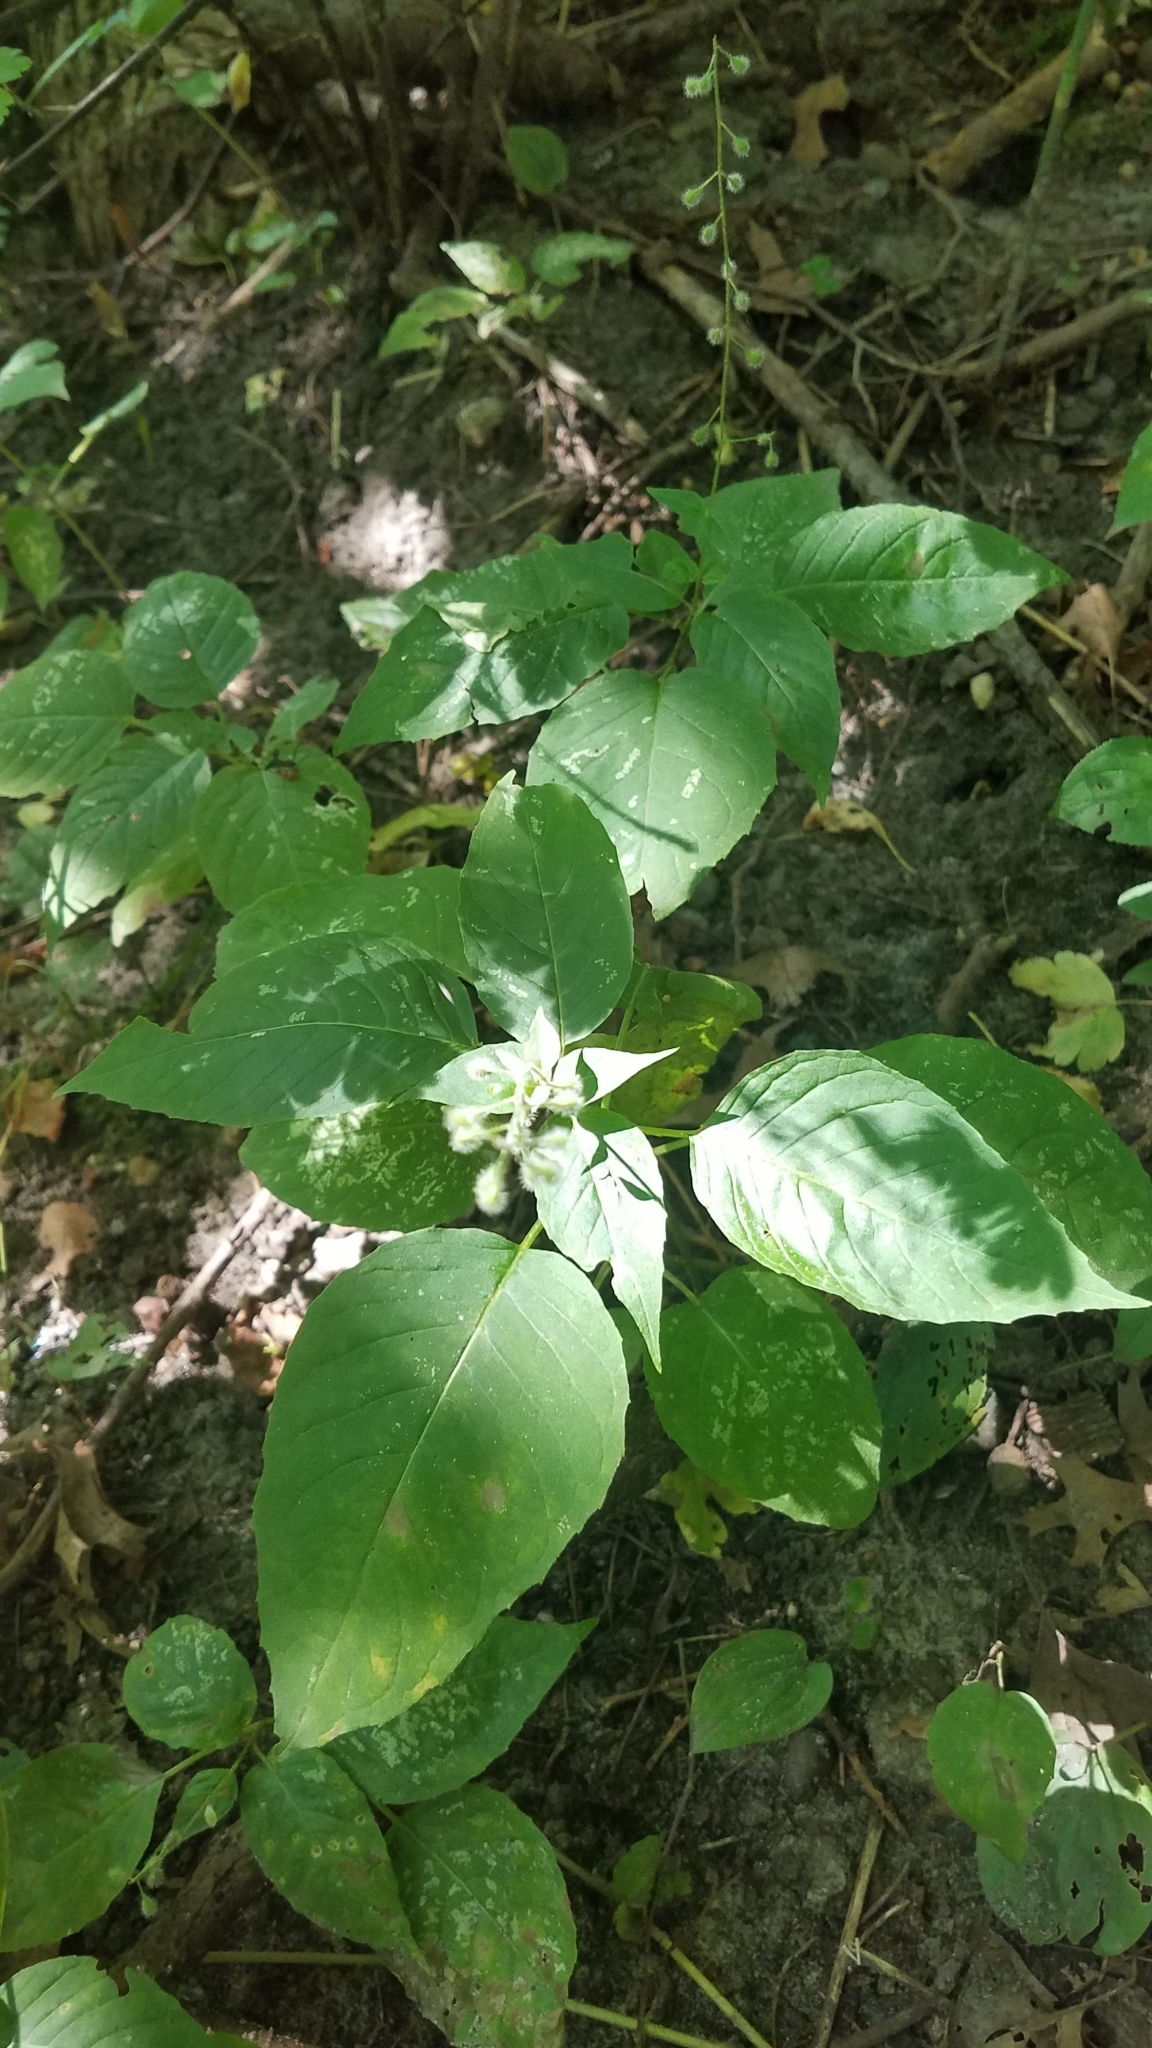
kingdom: Plantae
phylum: Tracheophyta
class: Magnoliopsida
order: Myrtales
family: Onagraceae
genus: Circaea
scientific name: Circaea canadensis
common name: Broad-leaved enchanter's nightshade
